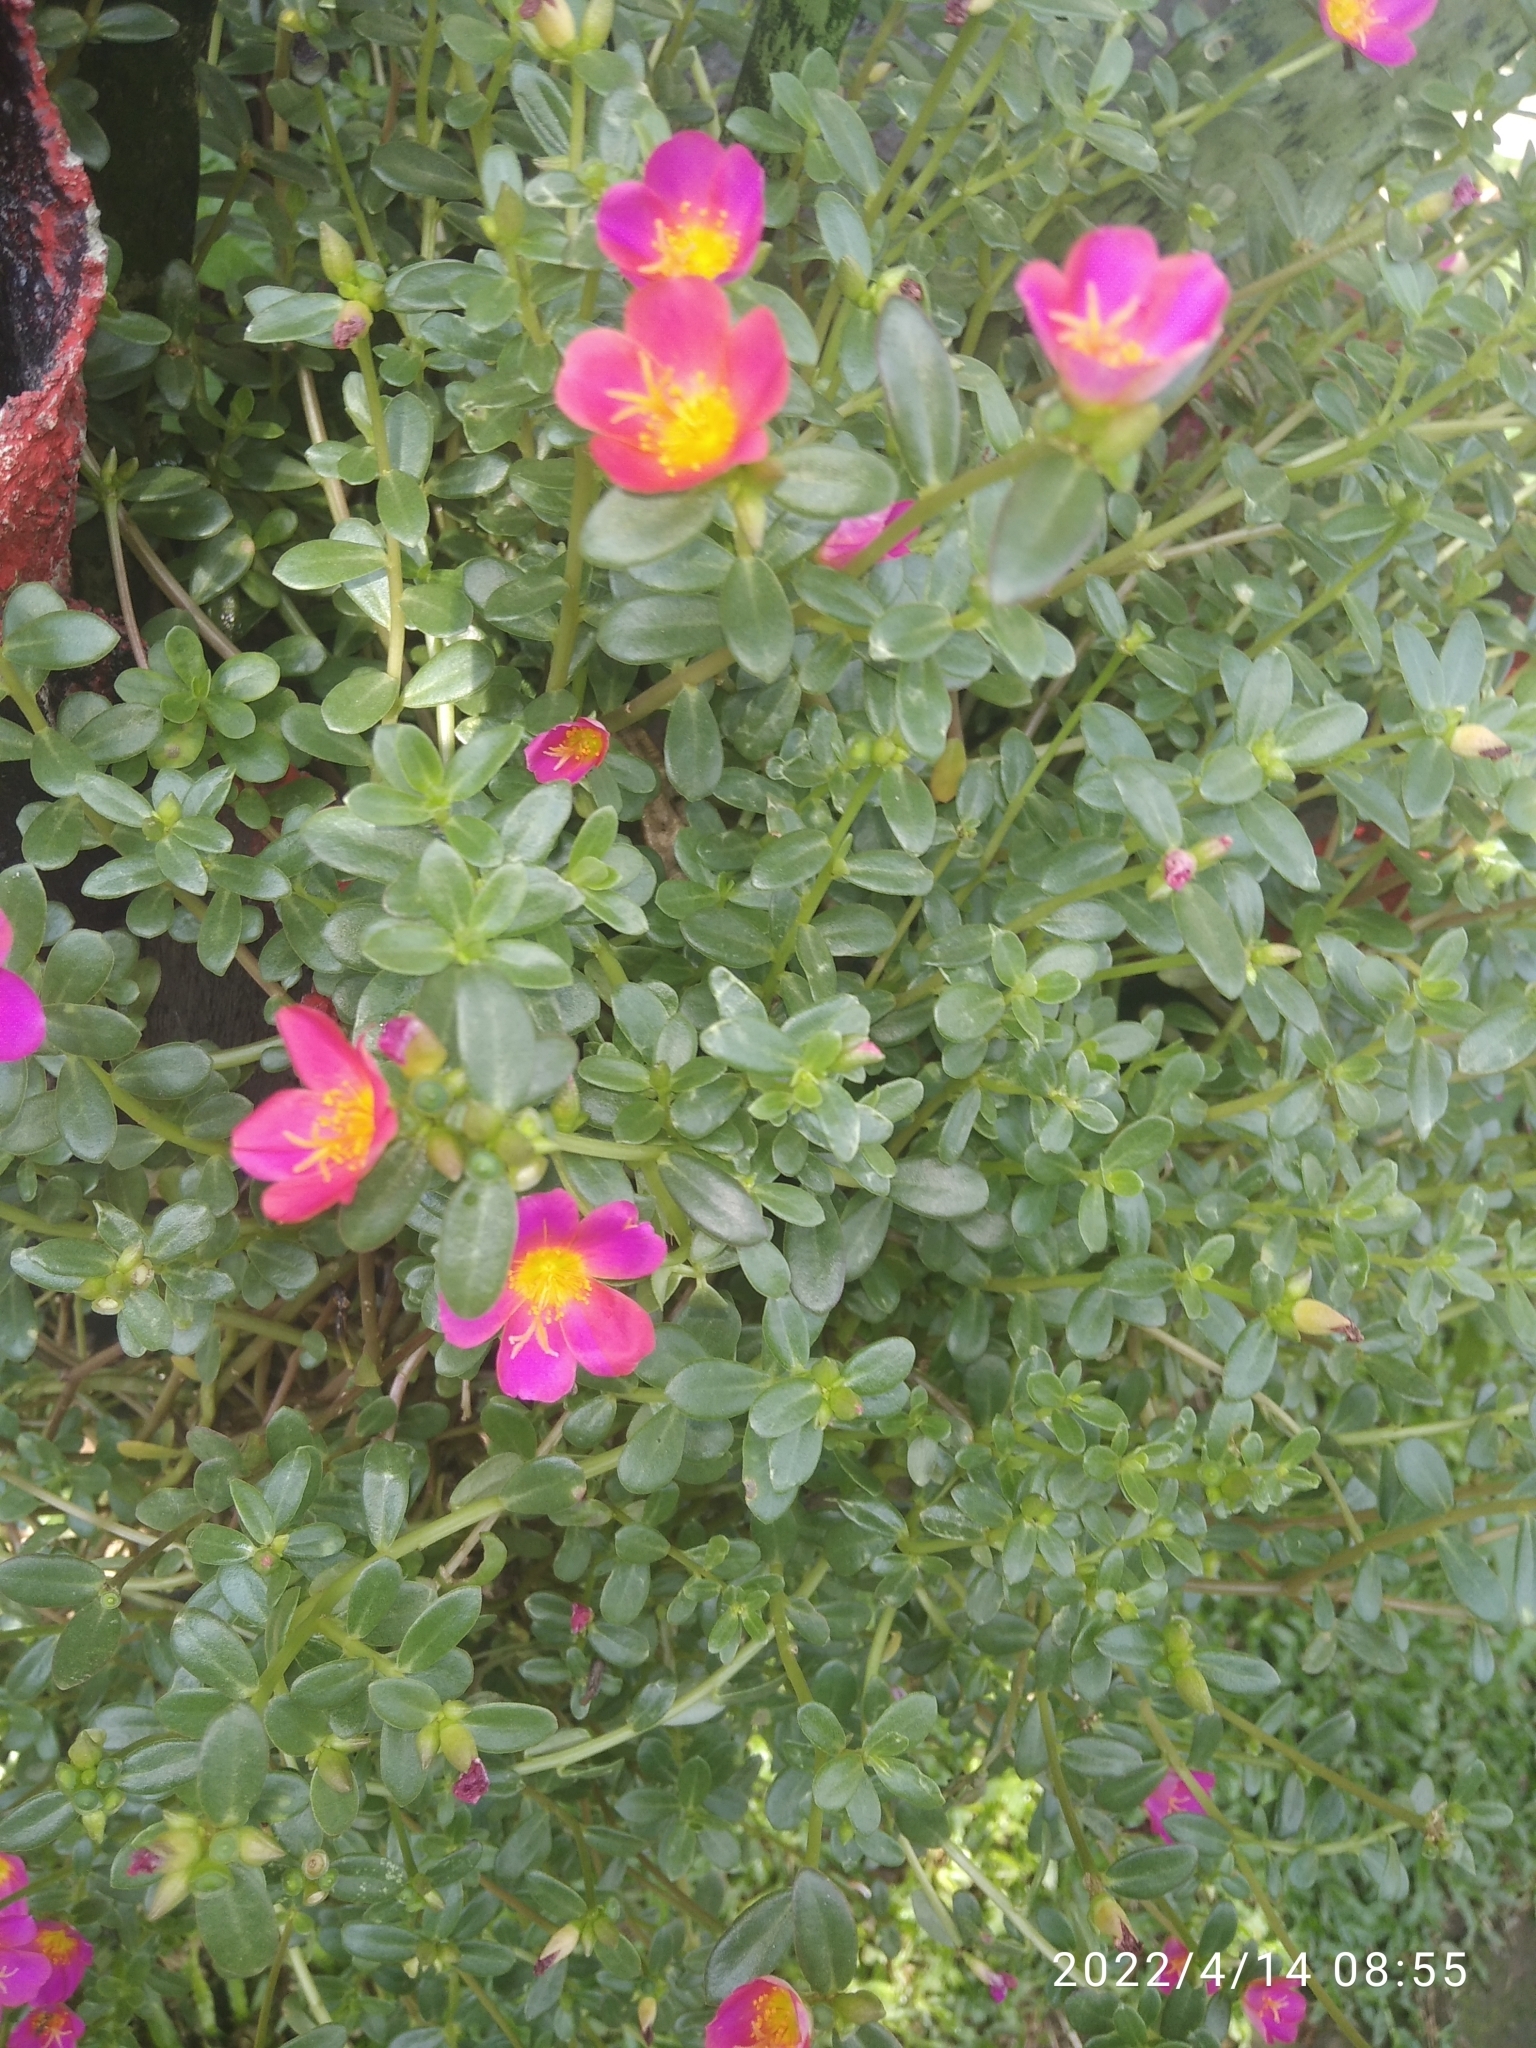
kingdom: Plantae
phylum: Tracheophyta
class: Magnoliopsida
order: Caryophyllales
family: Portulacaceae
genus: Portulaca
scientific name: Portulaca umbraticola
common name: Wingpod purslane
